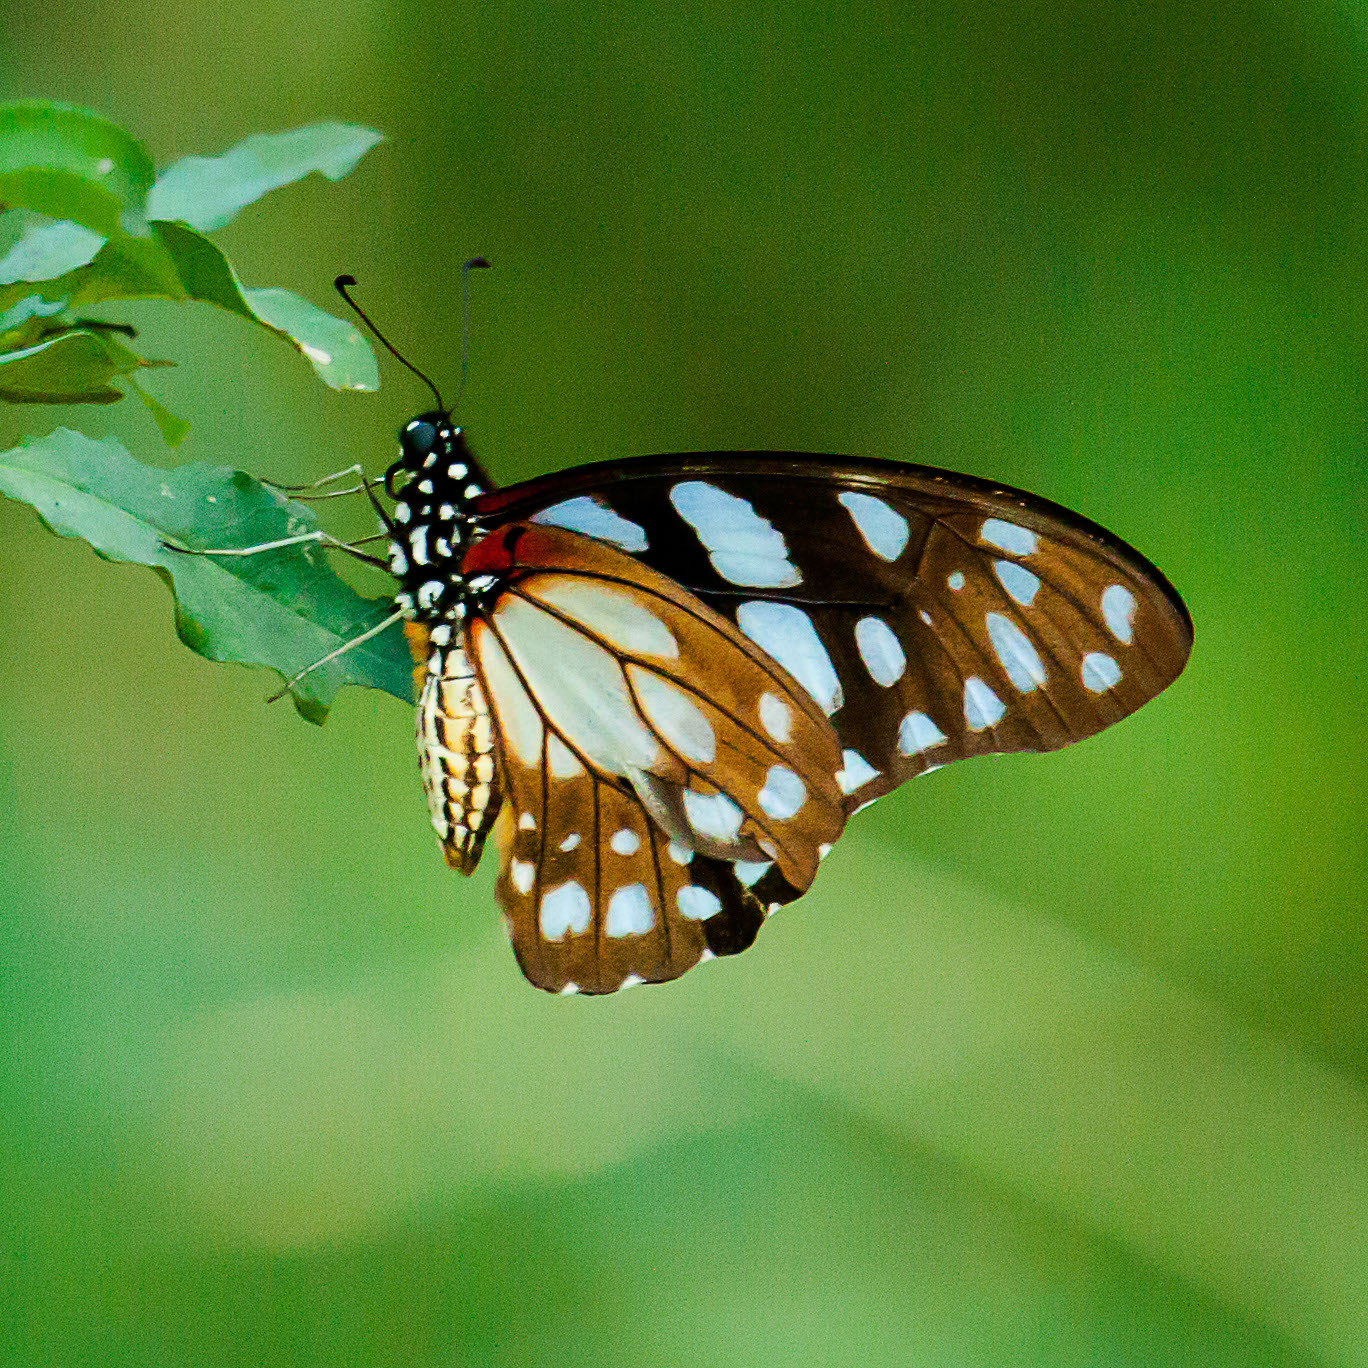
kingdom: Animalia
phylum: Arthropoda
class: Insecta
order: Lepidoptera
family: Papilionidae
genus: Graphium
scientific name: Graphium leonidas
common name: Common graphium
